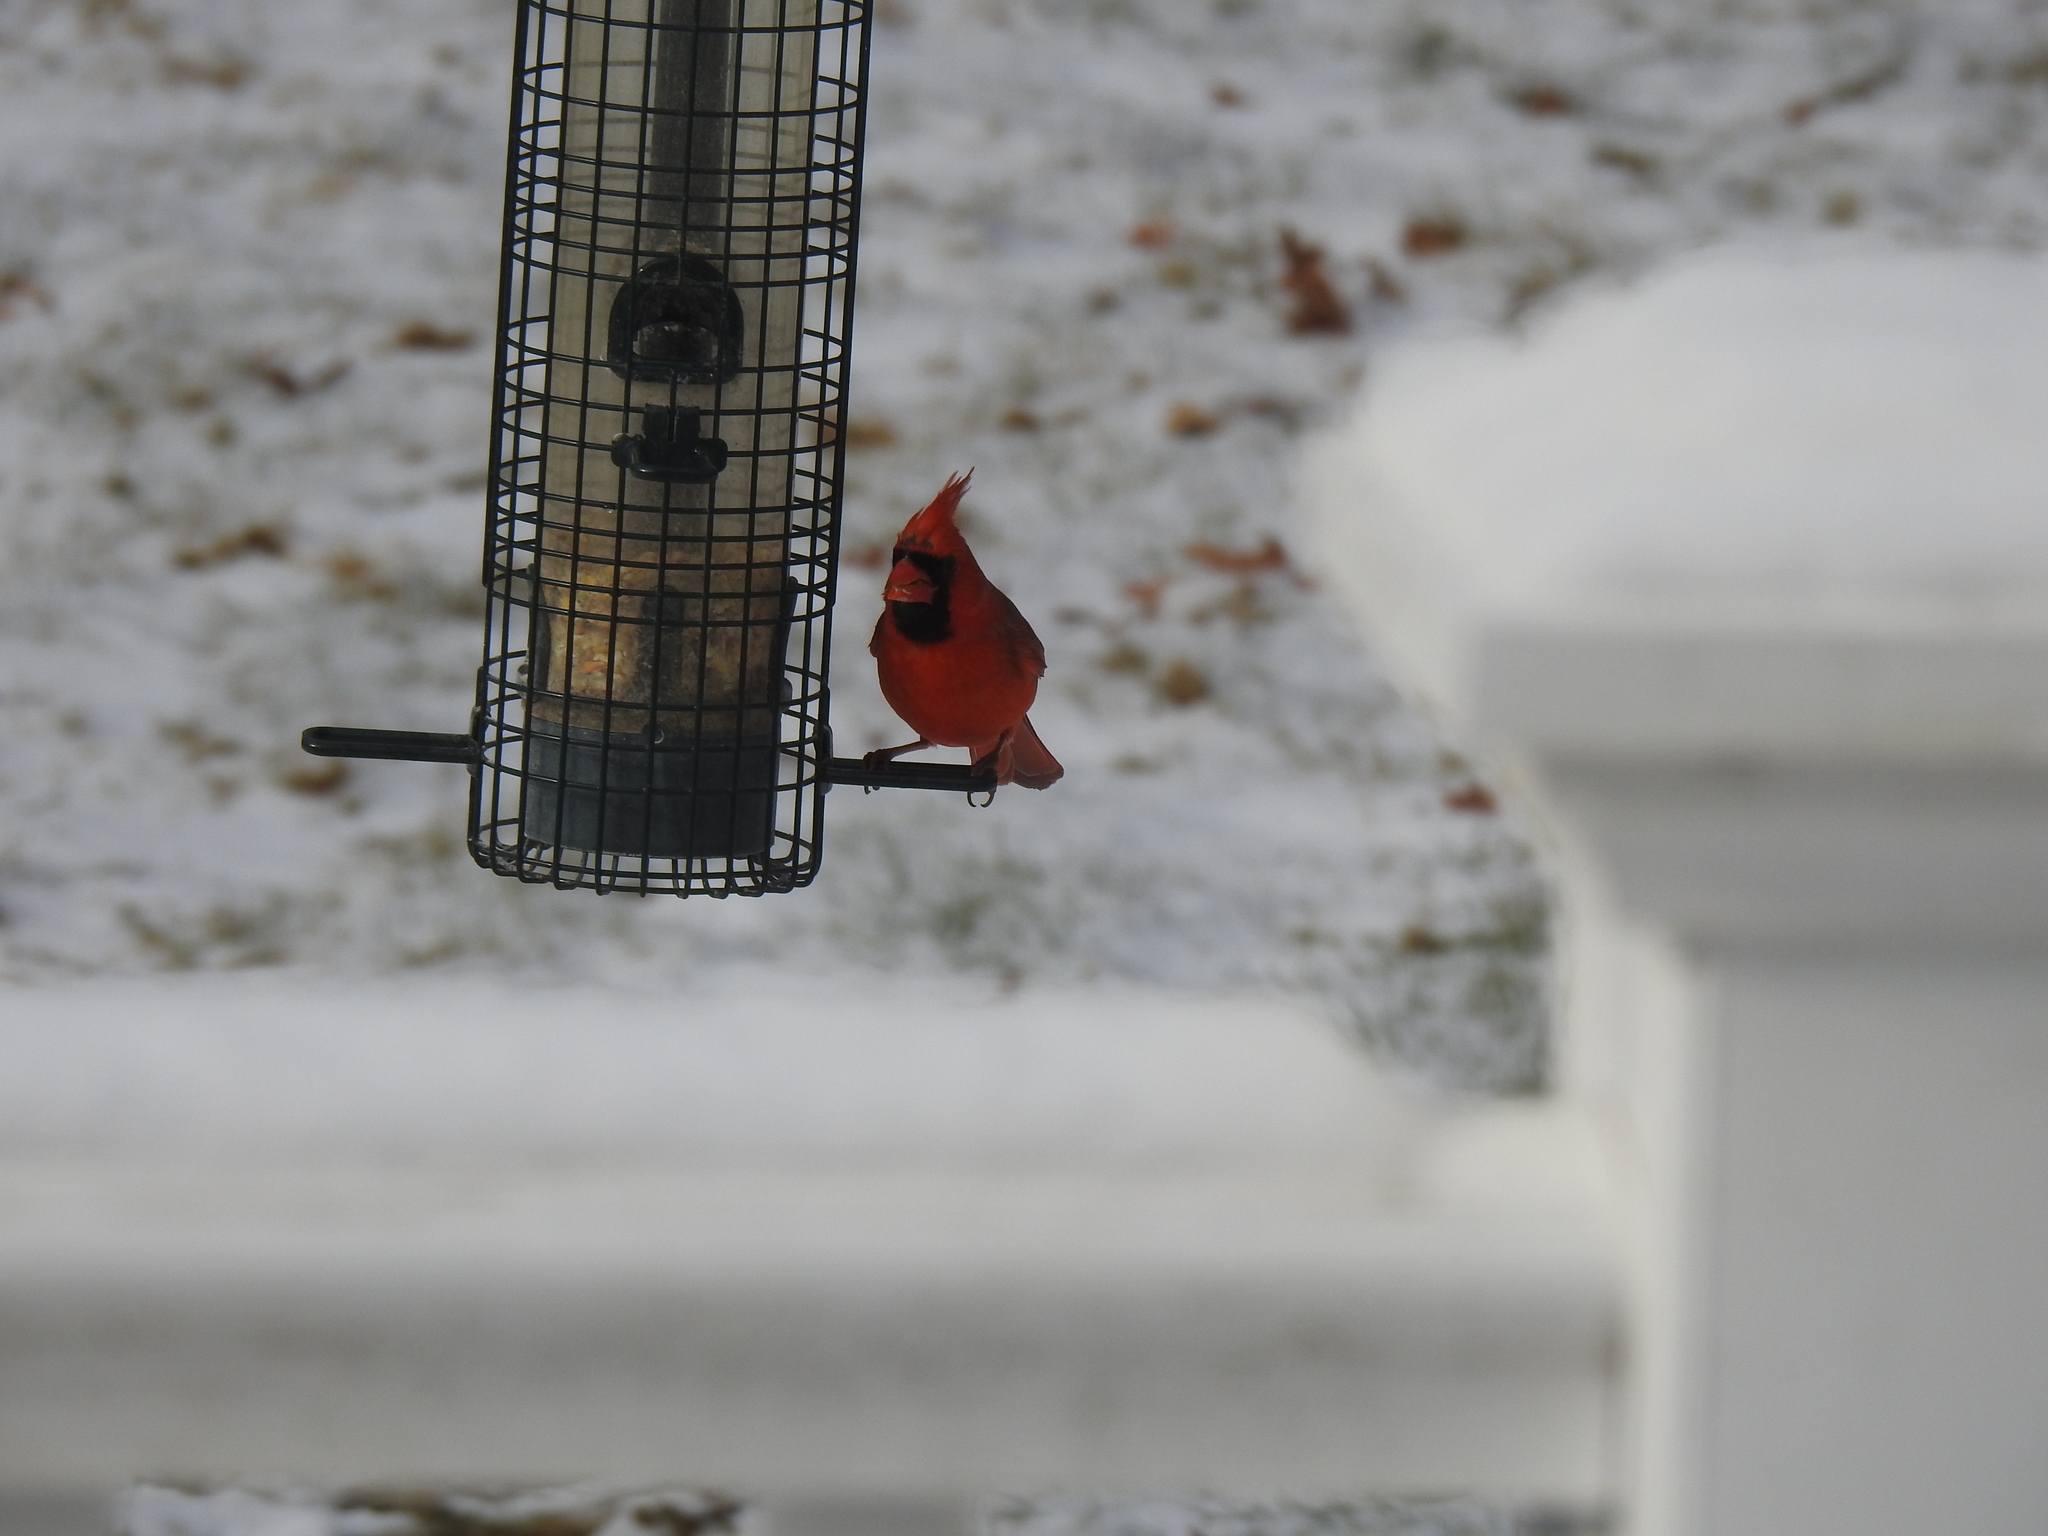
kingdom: Animalia
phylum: Chordata
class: Aves
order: Passeriformes
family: Cardinalidae
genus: Cardinalis
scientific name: Cardinalis cardinalis
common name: Northern cardinal
